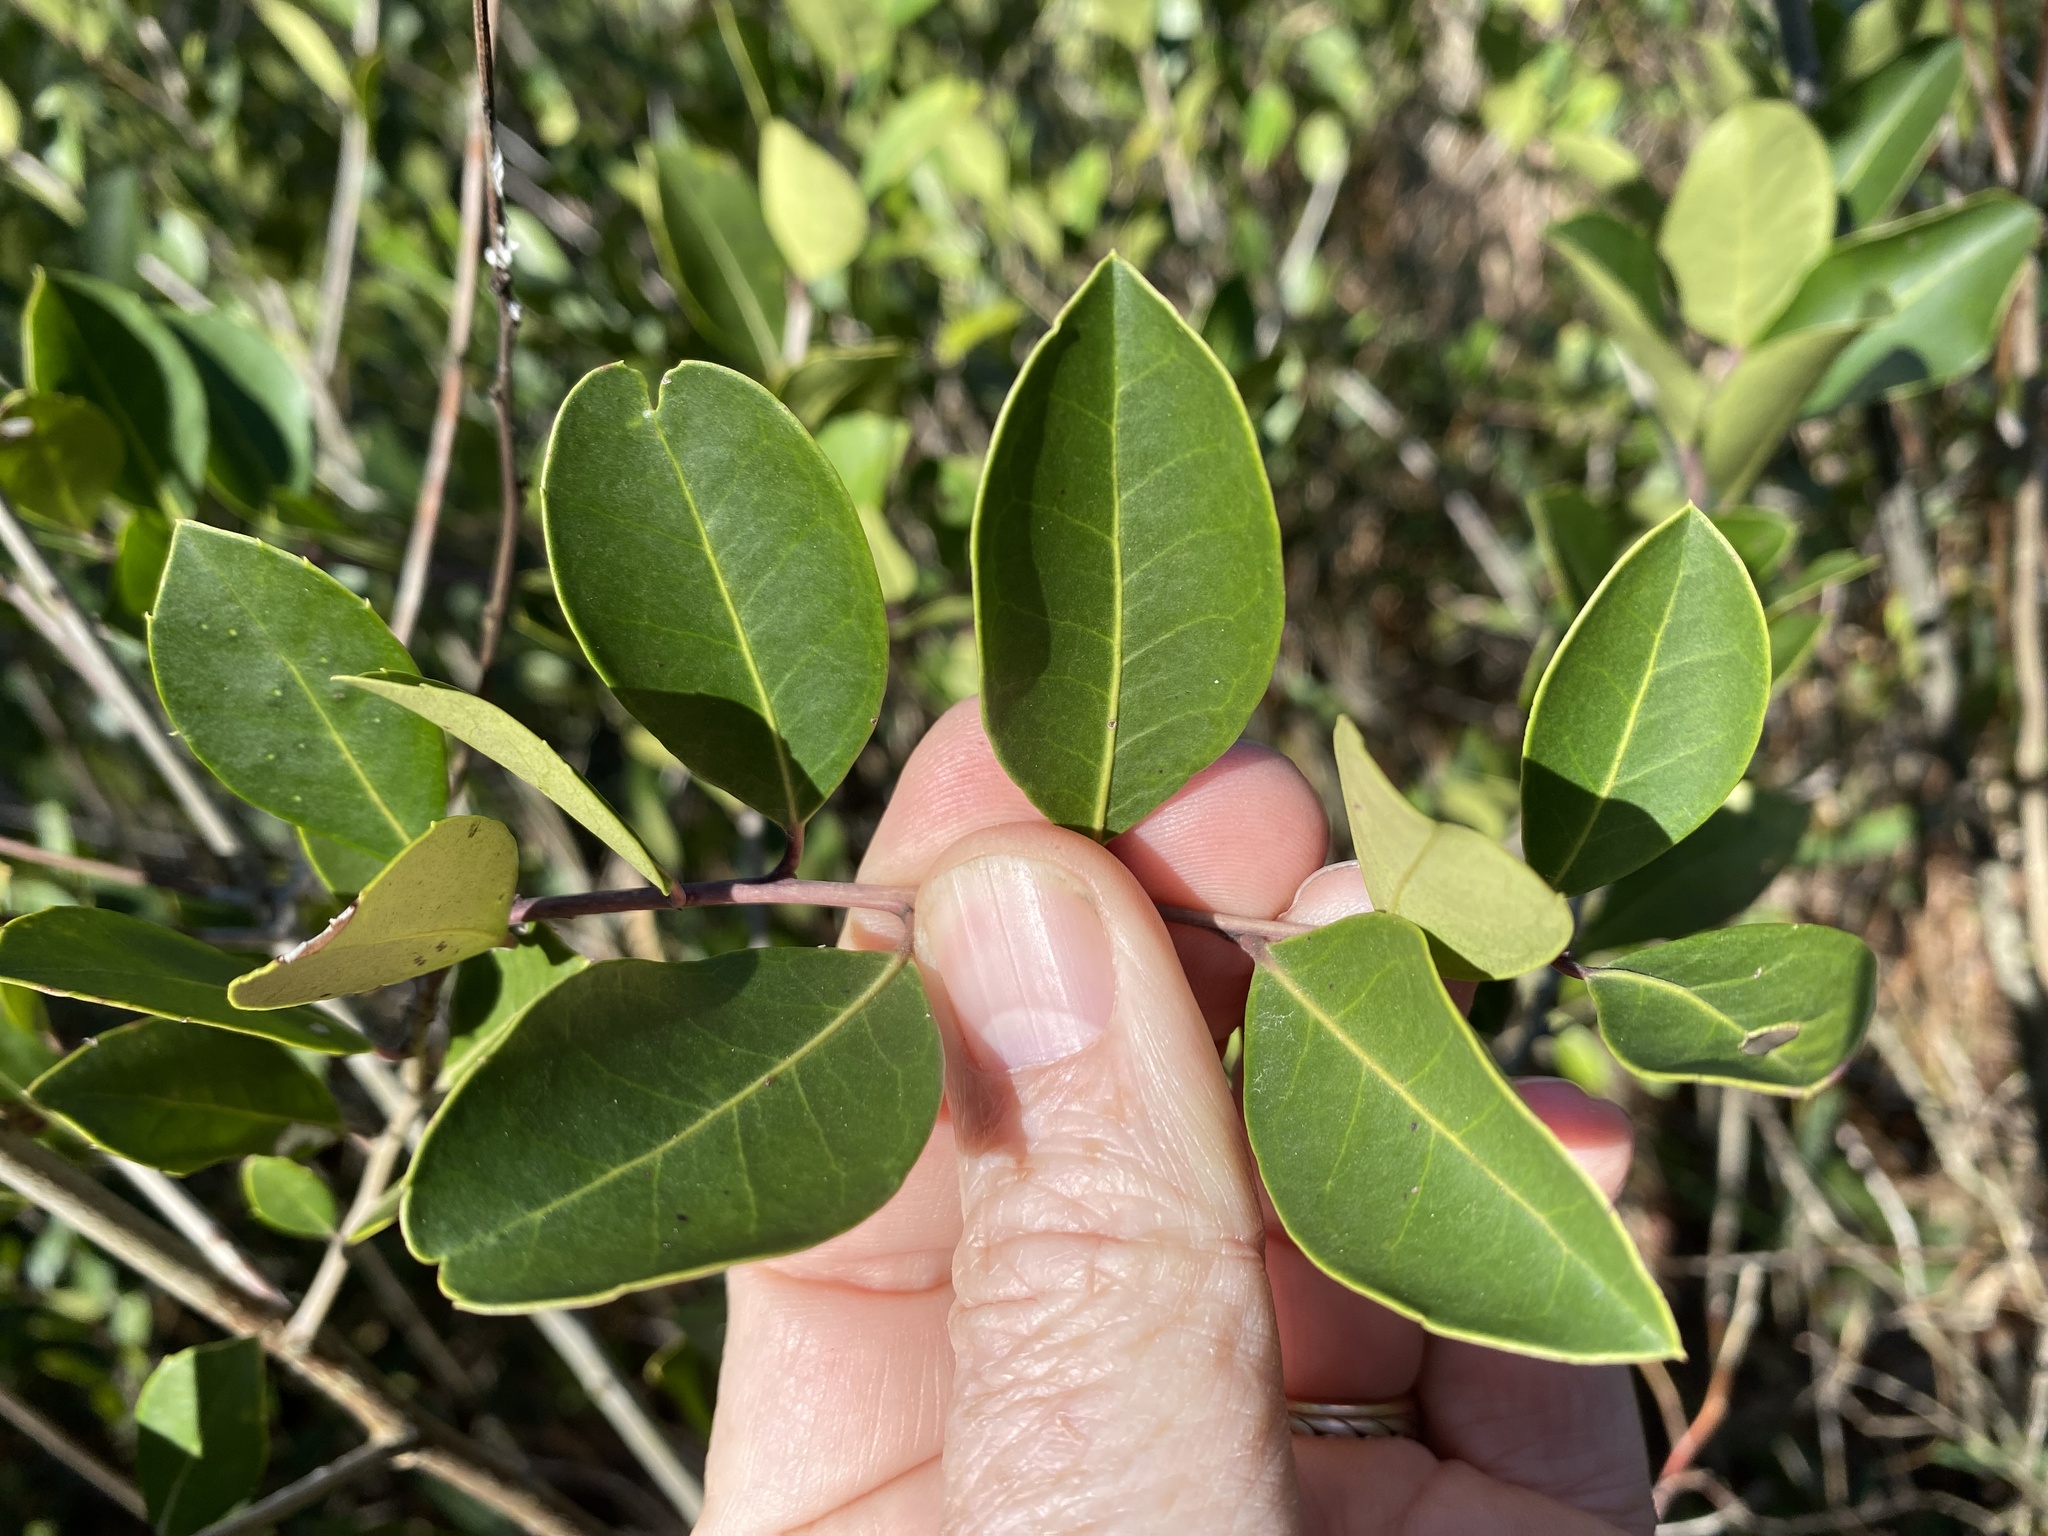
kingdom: Plantae
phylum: Tracheophyta
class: Magnoliopsida
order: Aquifoliales
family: Aquifoliaceae
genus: Ilex
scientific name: Ilex coriacea
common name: Sweet gallberry
